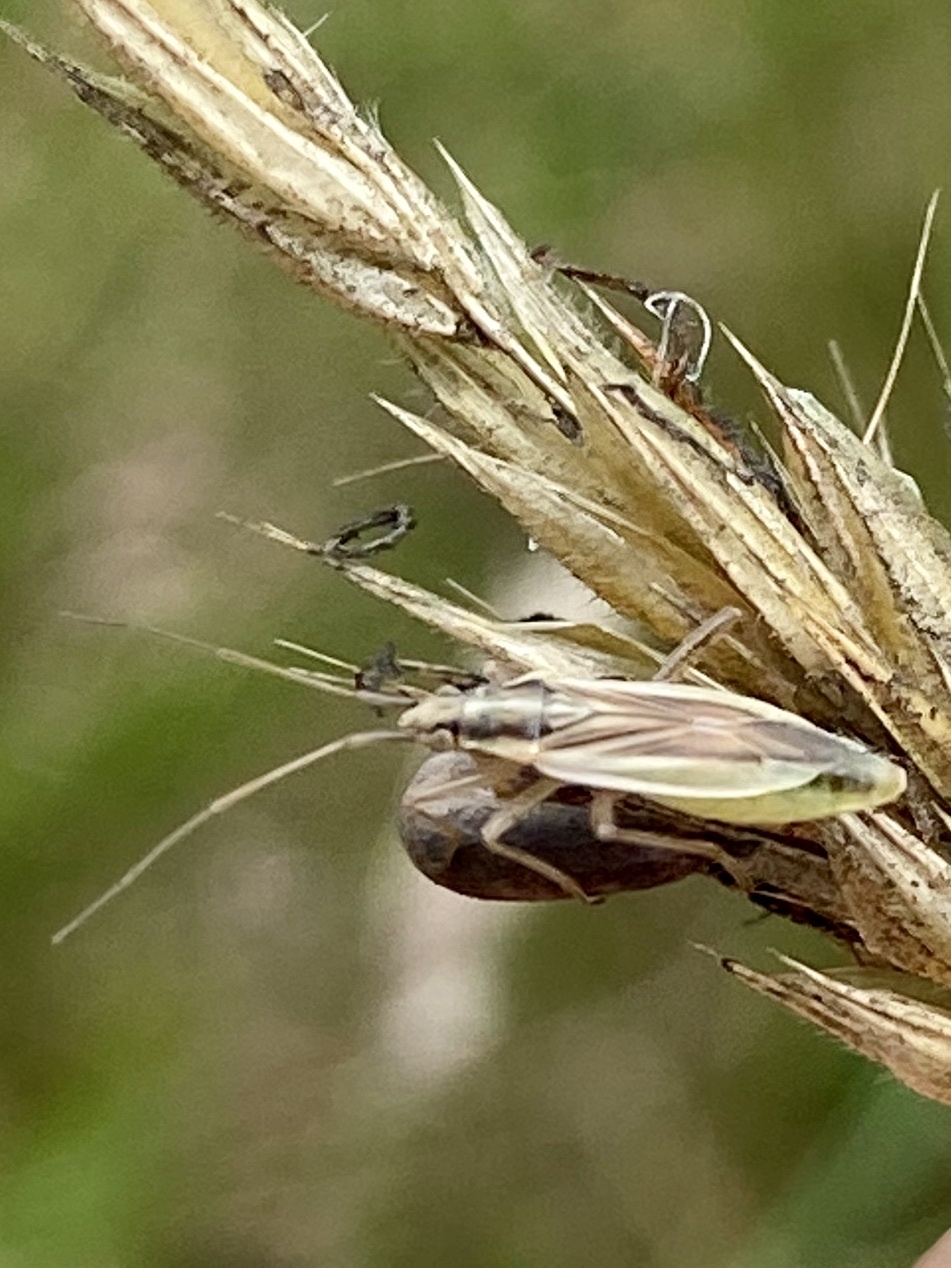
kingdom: Animalia
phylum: Arthropoda
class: Insecta
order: Hemiptera
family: Miridae
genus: Stenodema
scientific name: Stenodema holsata
